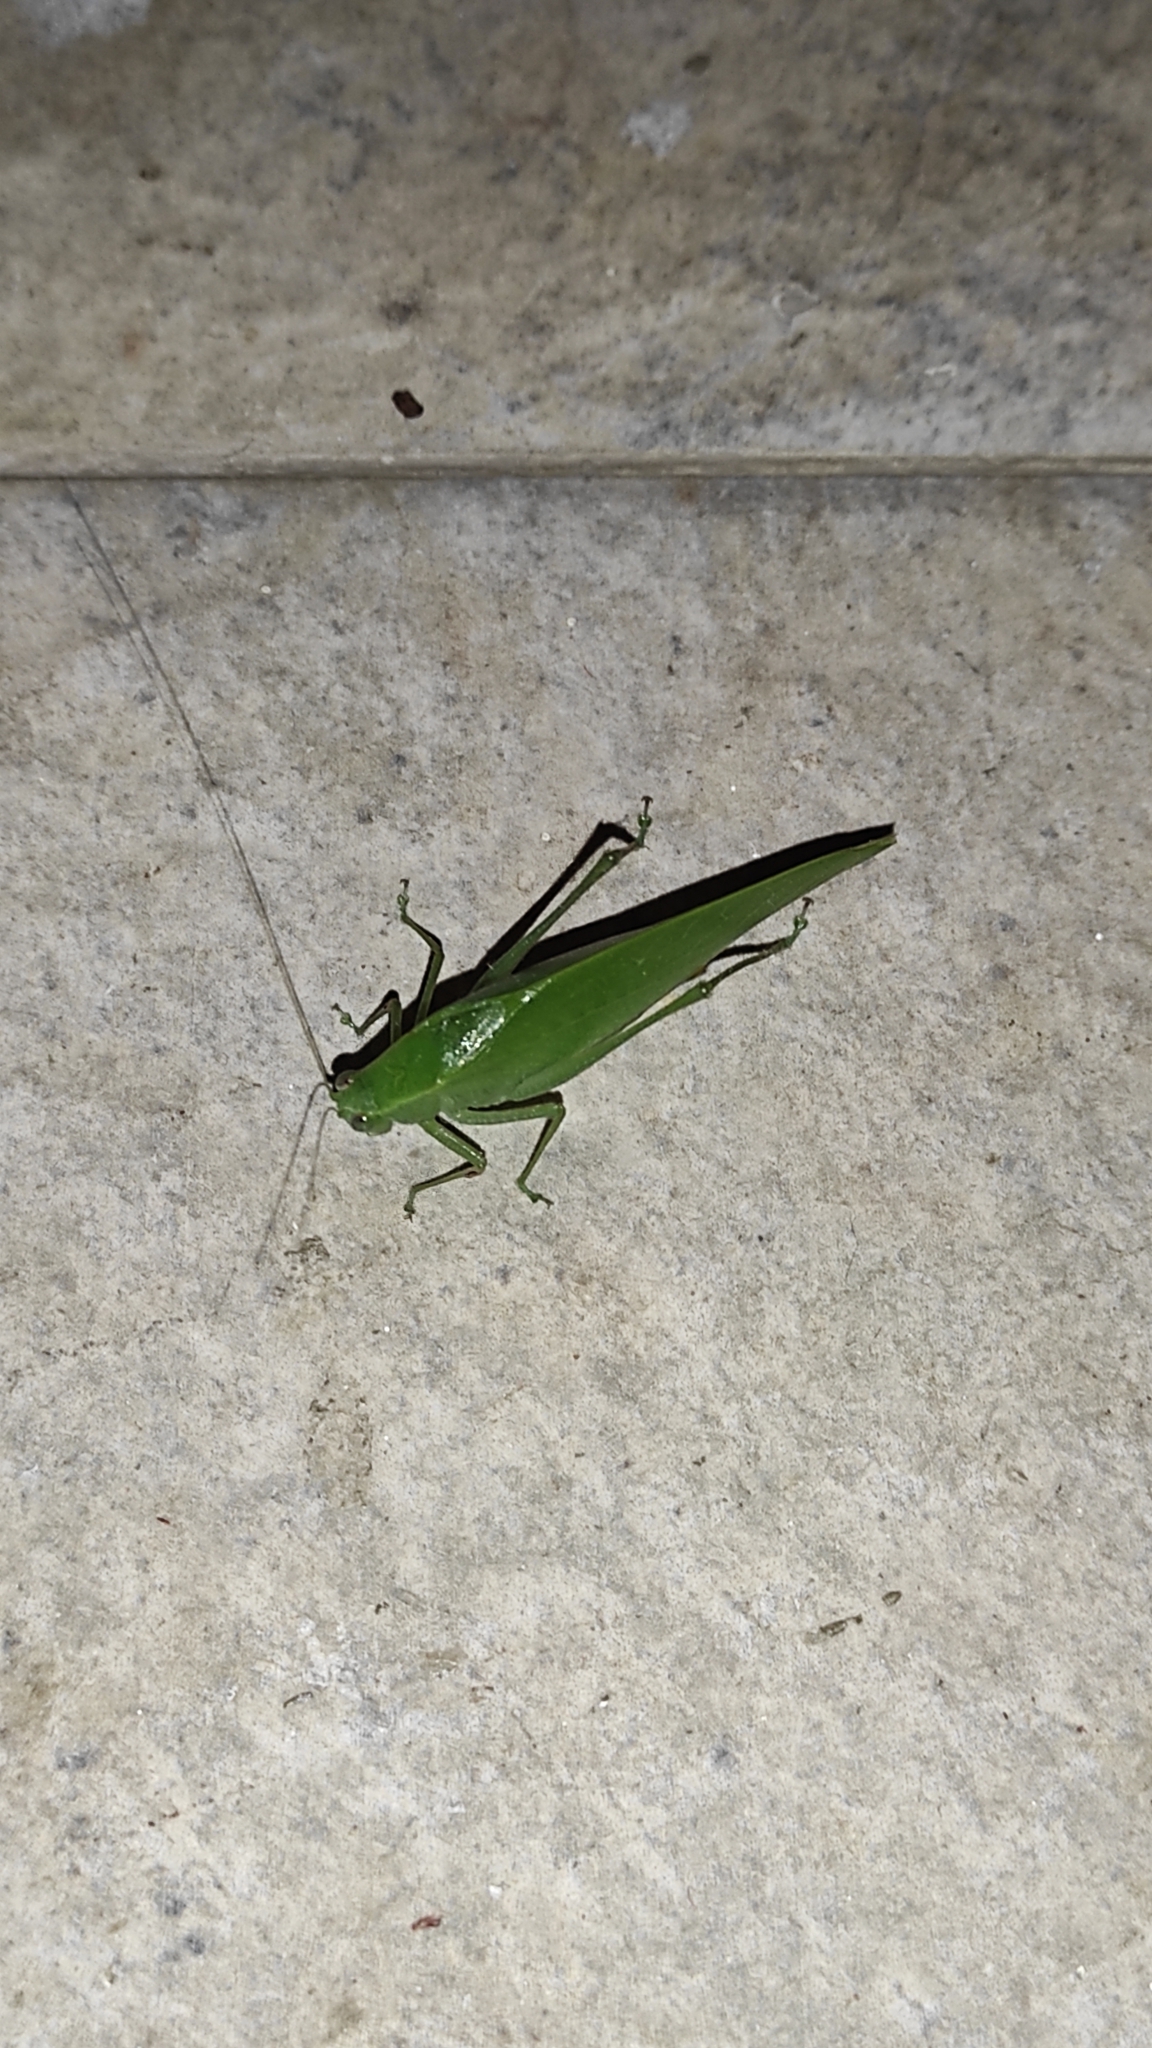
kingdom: Animalia
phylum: Arthropoda
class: Insecta
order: Orthoptera
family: Tettigoniidae
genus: Microcentrum
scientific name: Microcentrum rhombifolium
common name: Broad-winged katydid
